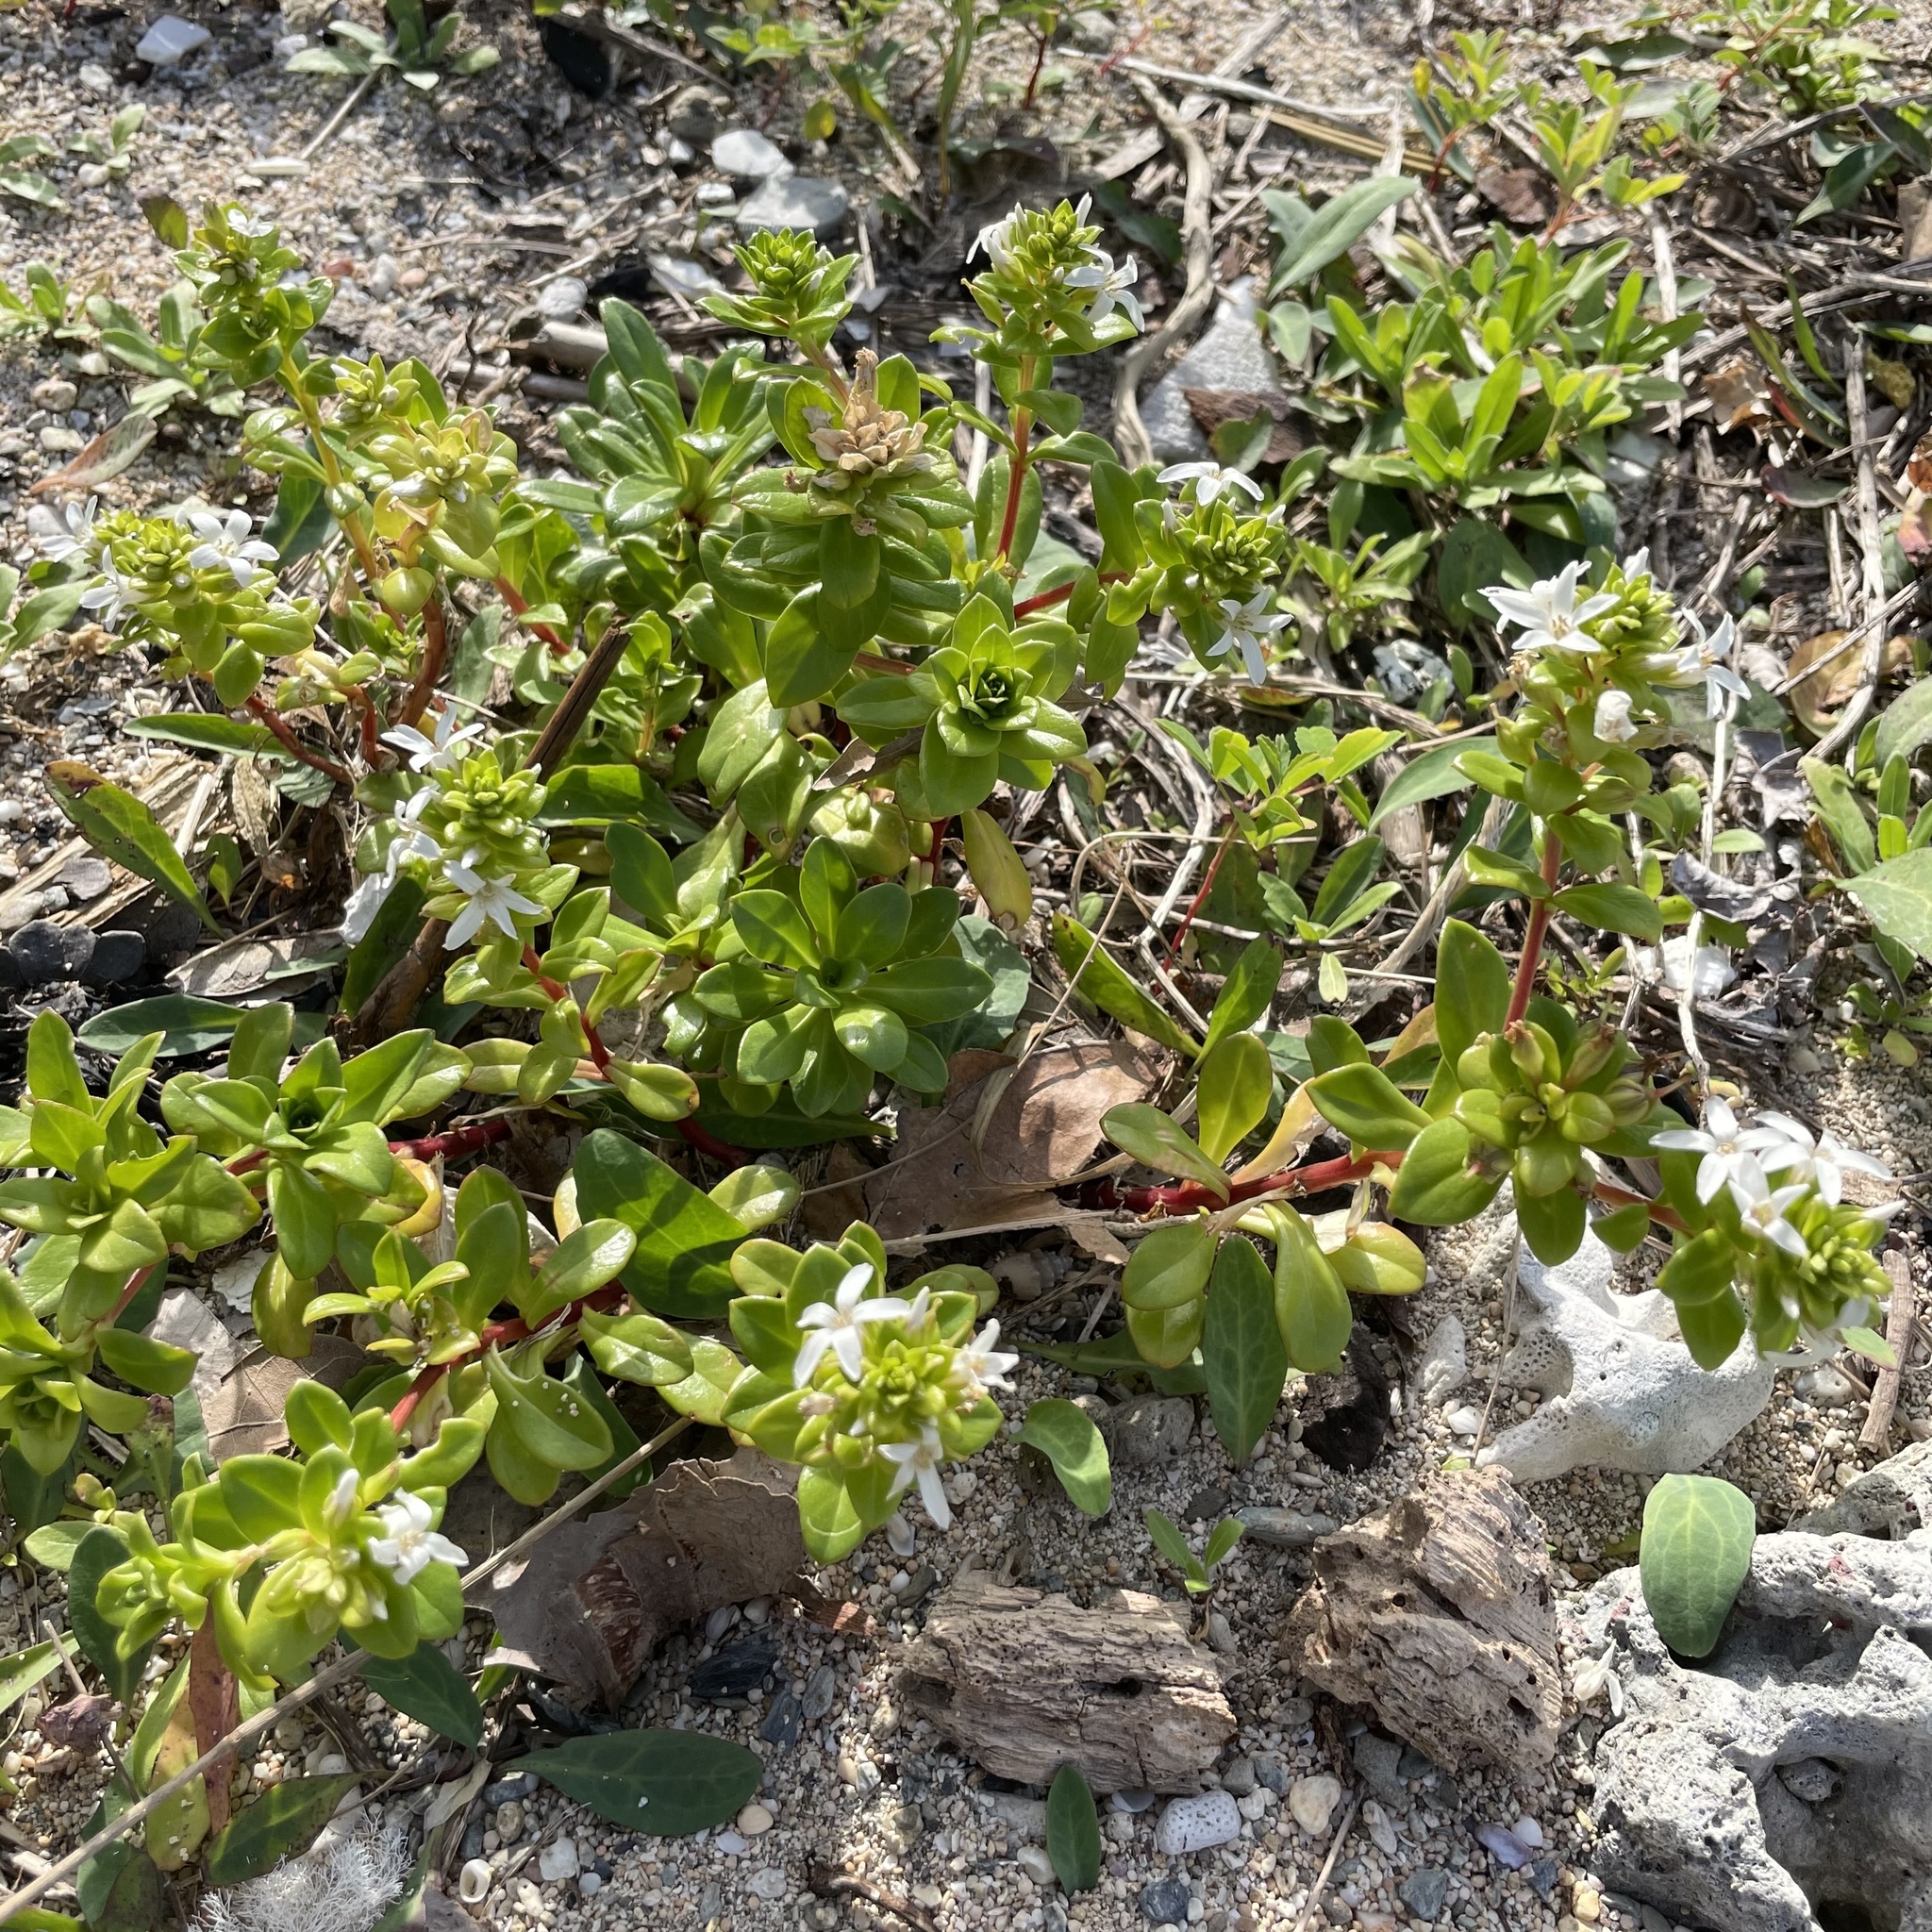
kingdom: Plantae
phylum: Tracheophyta
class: Magnoliopsida
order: Ericales
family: Primulaceae
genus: Lysimachia
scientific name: Lysimachia mauritiana
